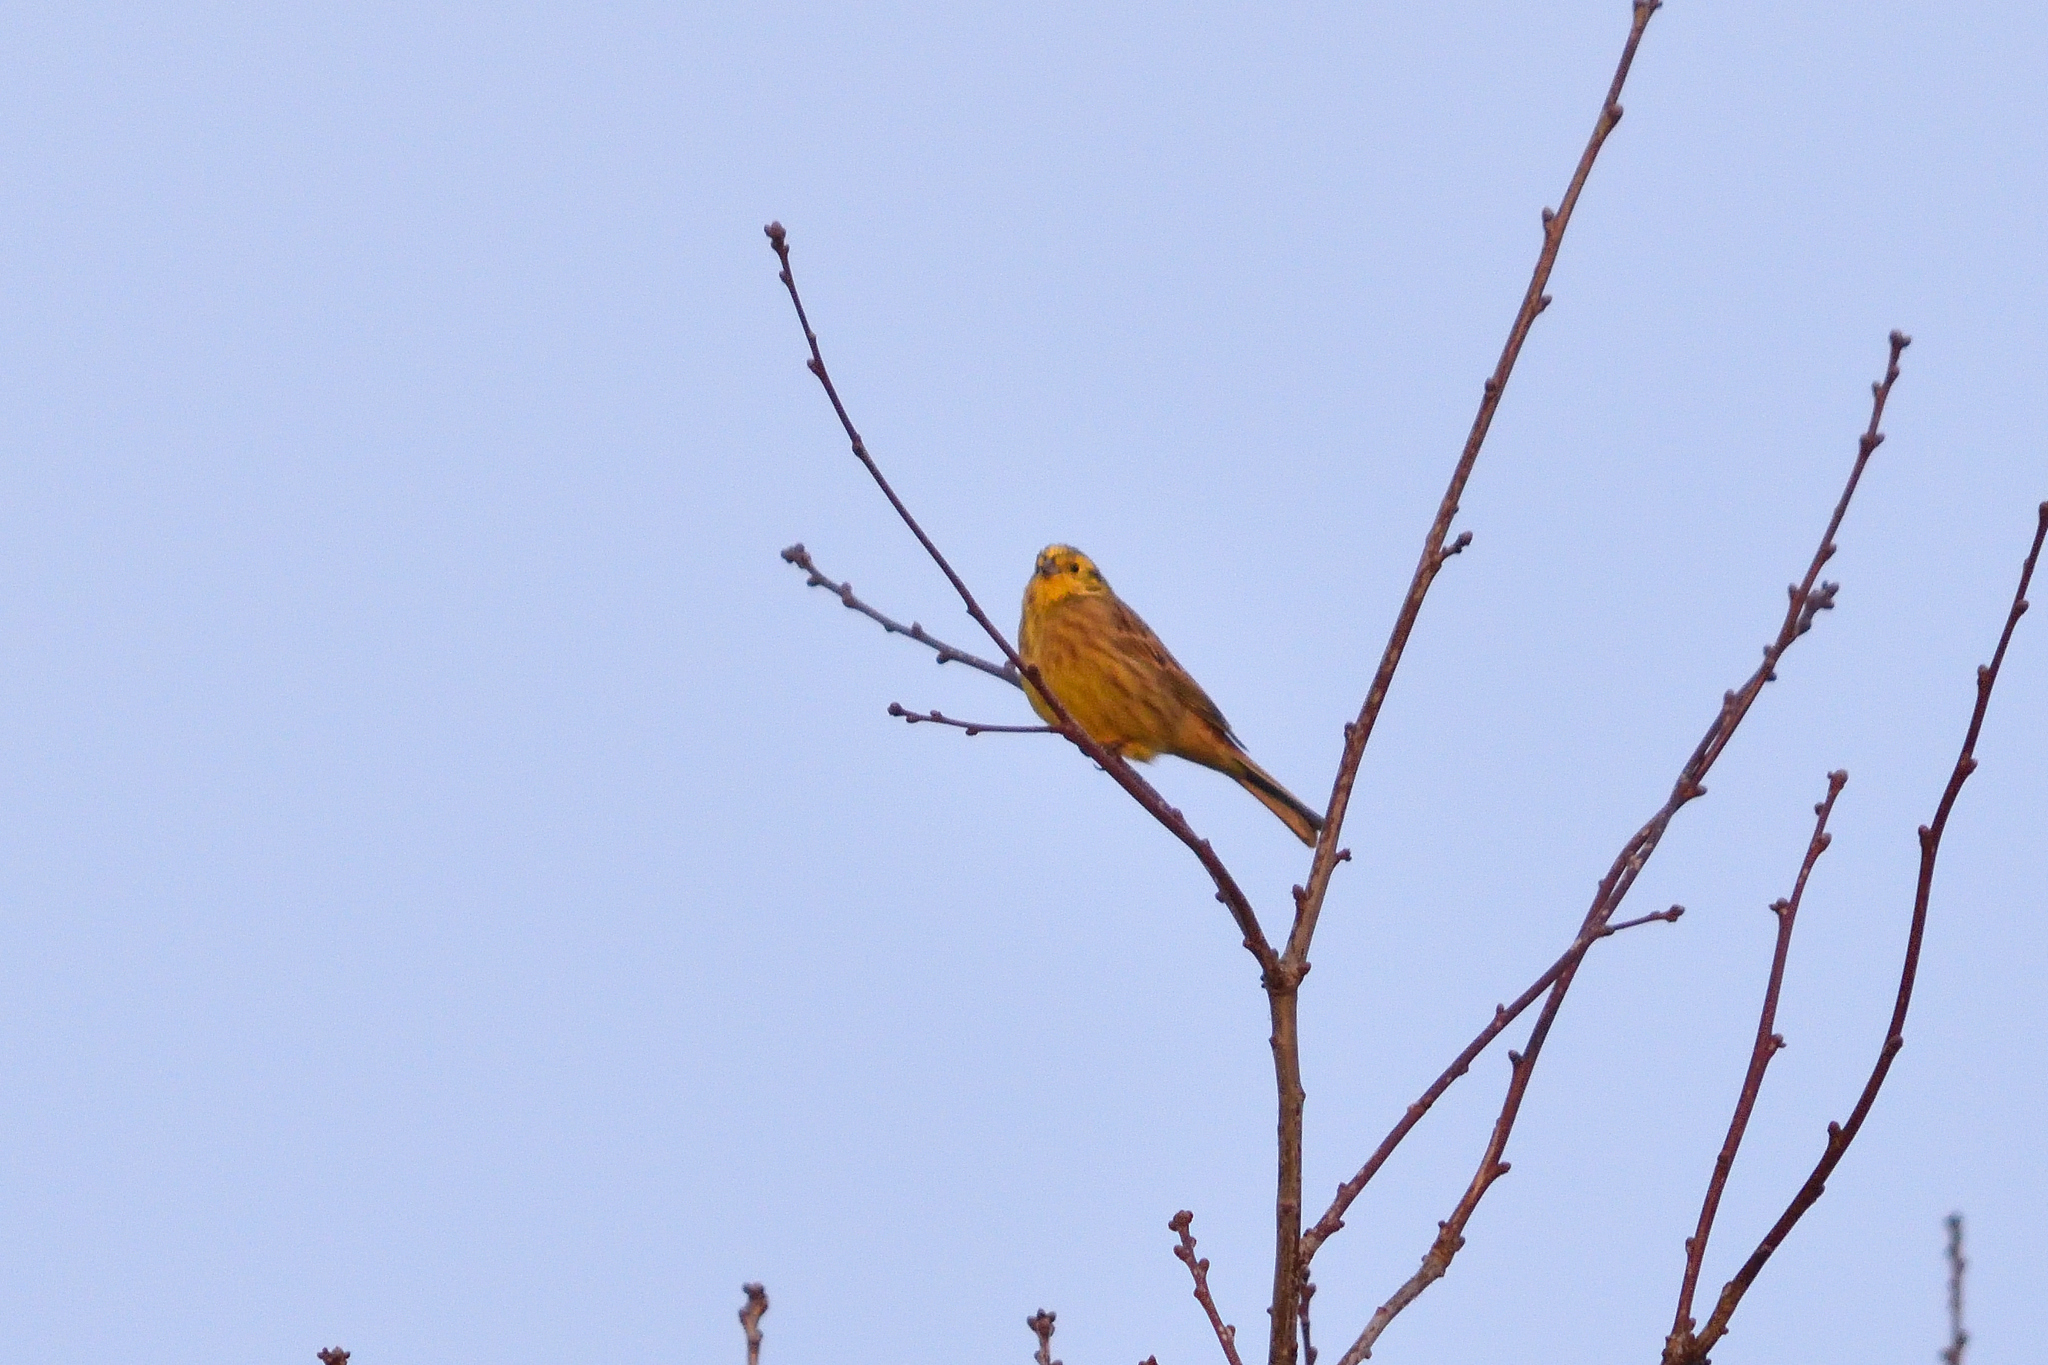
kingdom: Animalia
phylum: Chordata
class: Aves
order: Passeriformes
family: Emberizidae
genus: Emberiza
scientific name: Emberiza citrinella
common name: Yellowhammer
